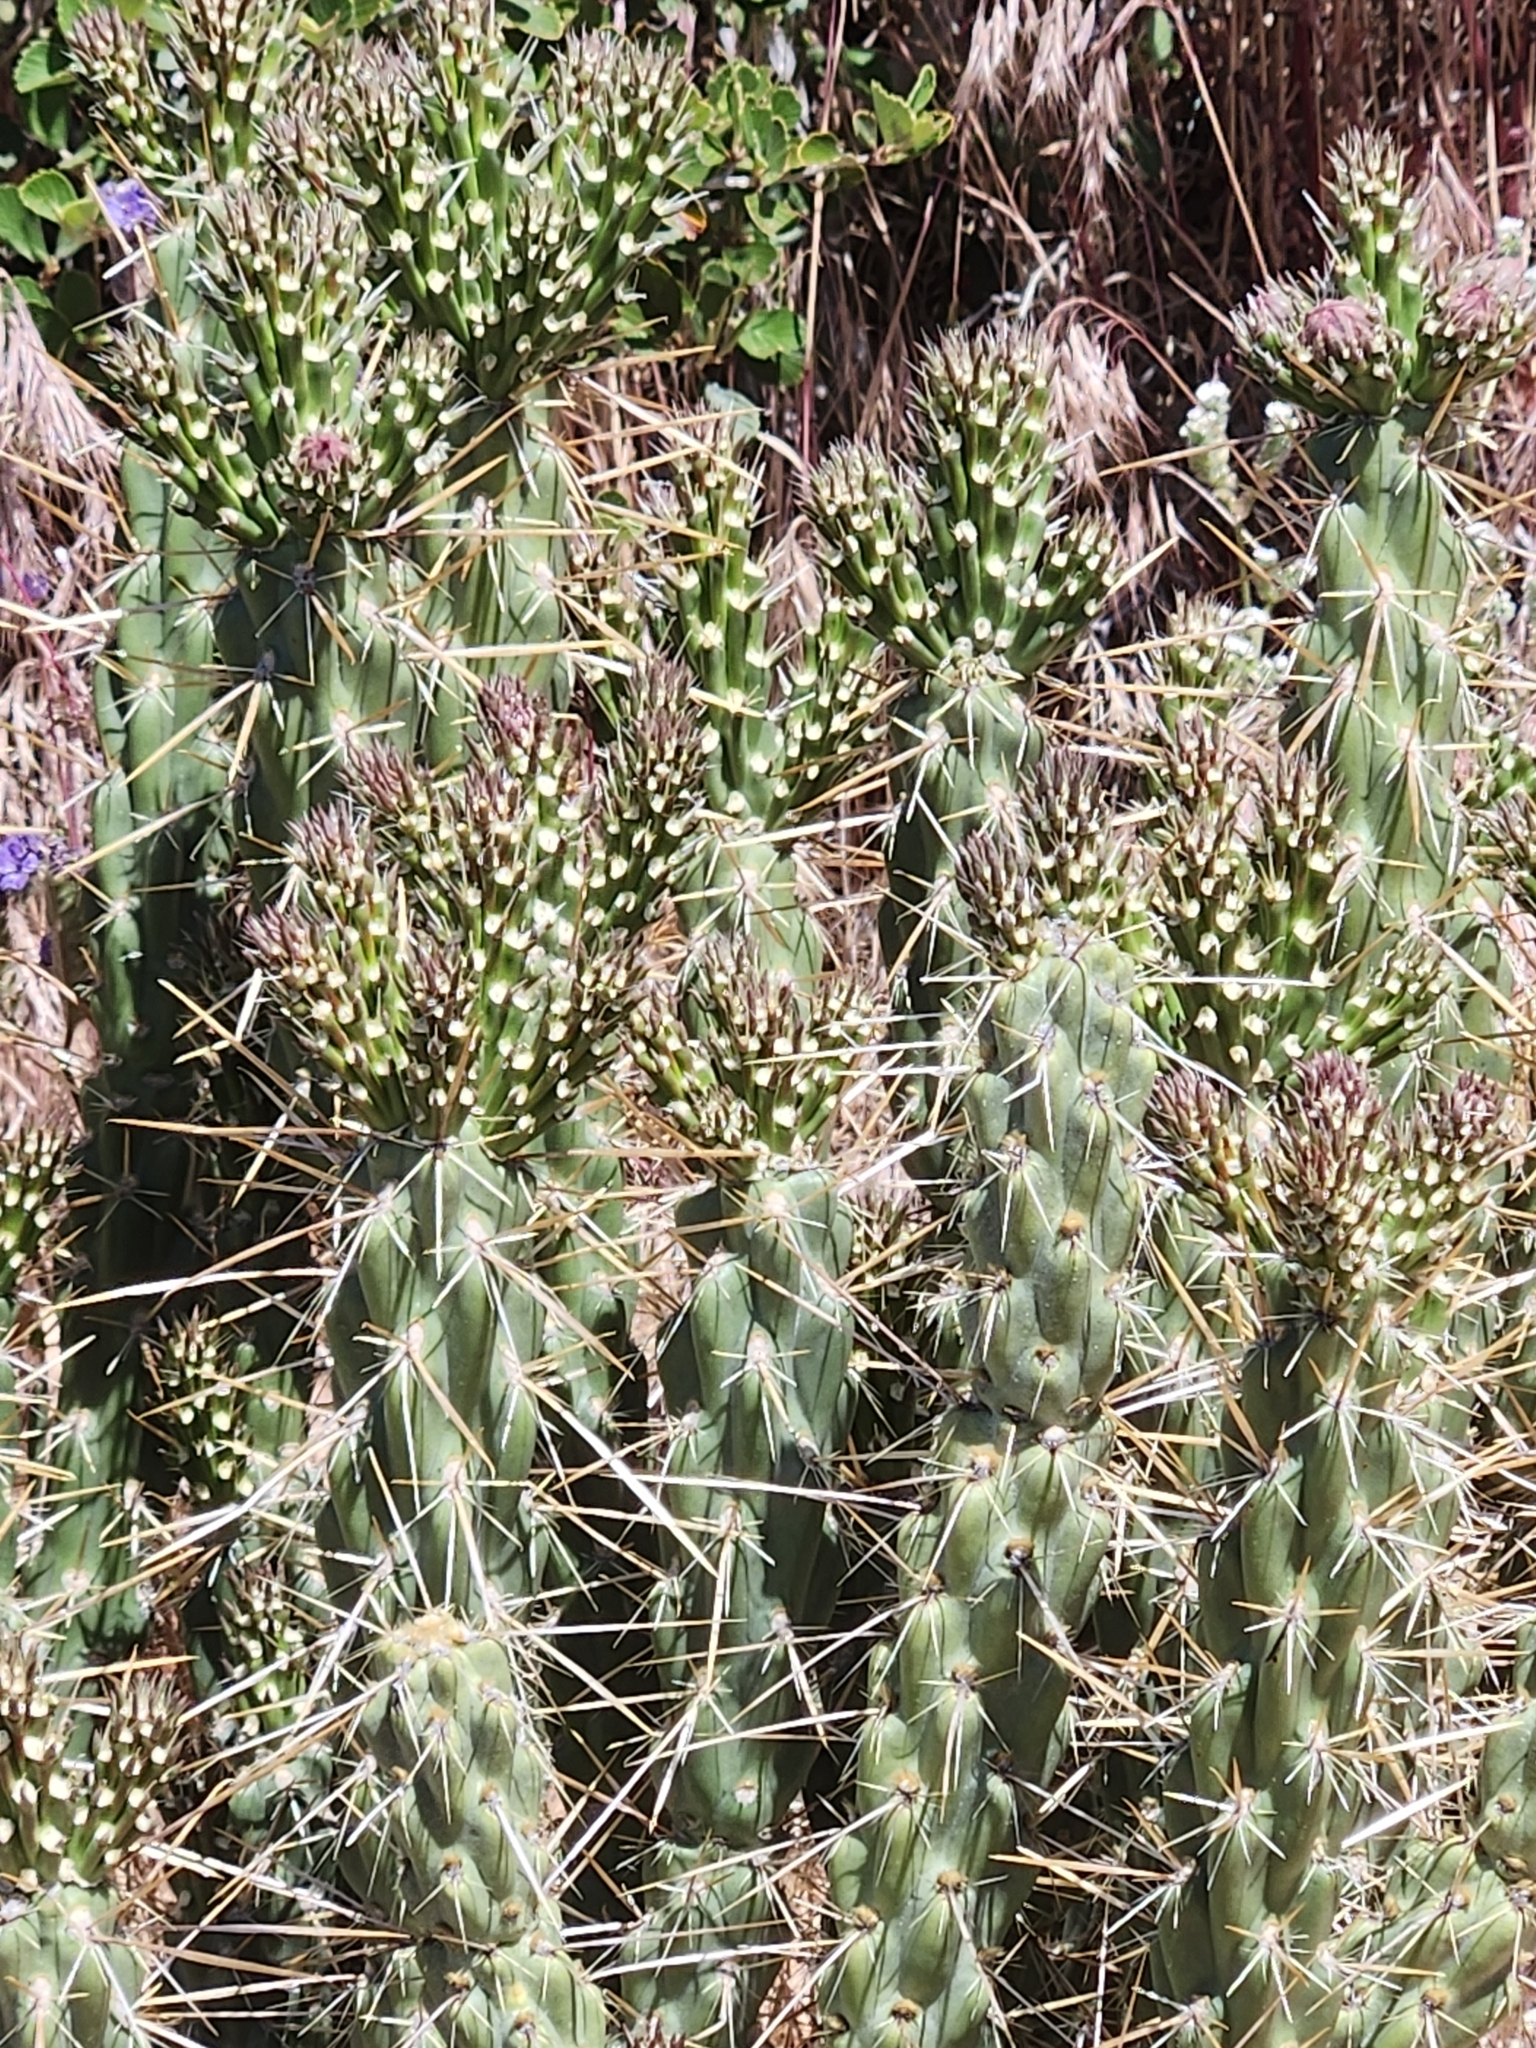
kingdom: Plantae
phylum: Tracheophyta
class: Magnoliopsida
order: Caryophyllales
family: Cactaceae
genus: Cylindropuntia
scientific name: Cylindropuntia bernardina
